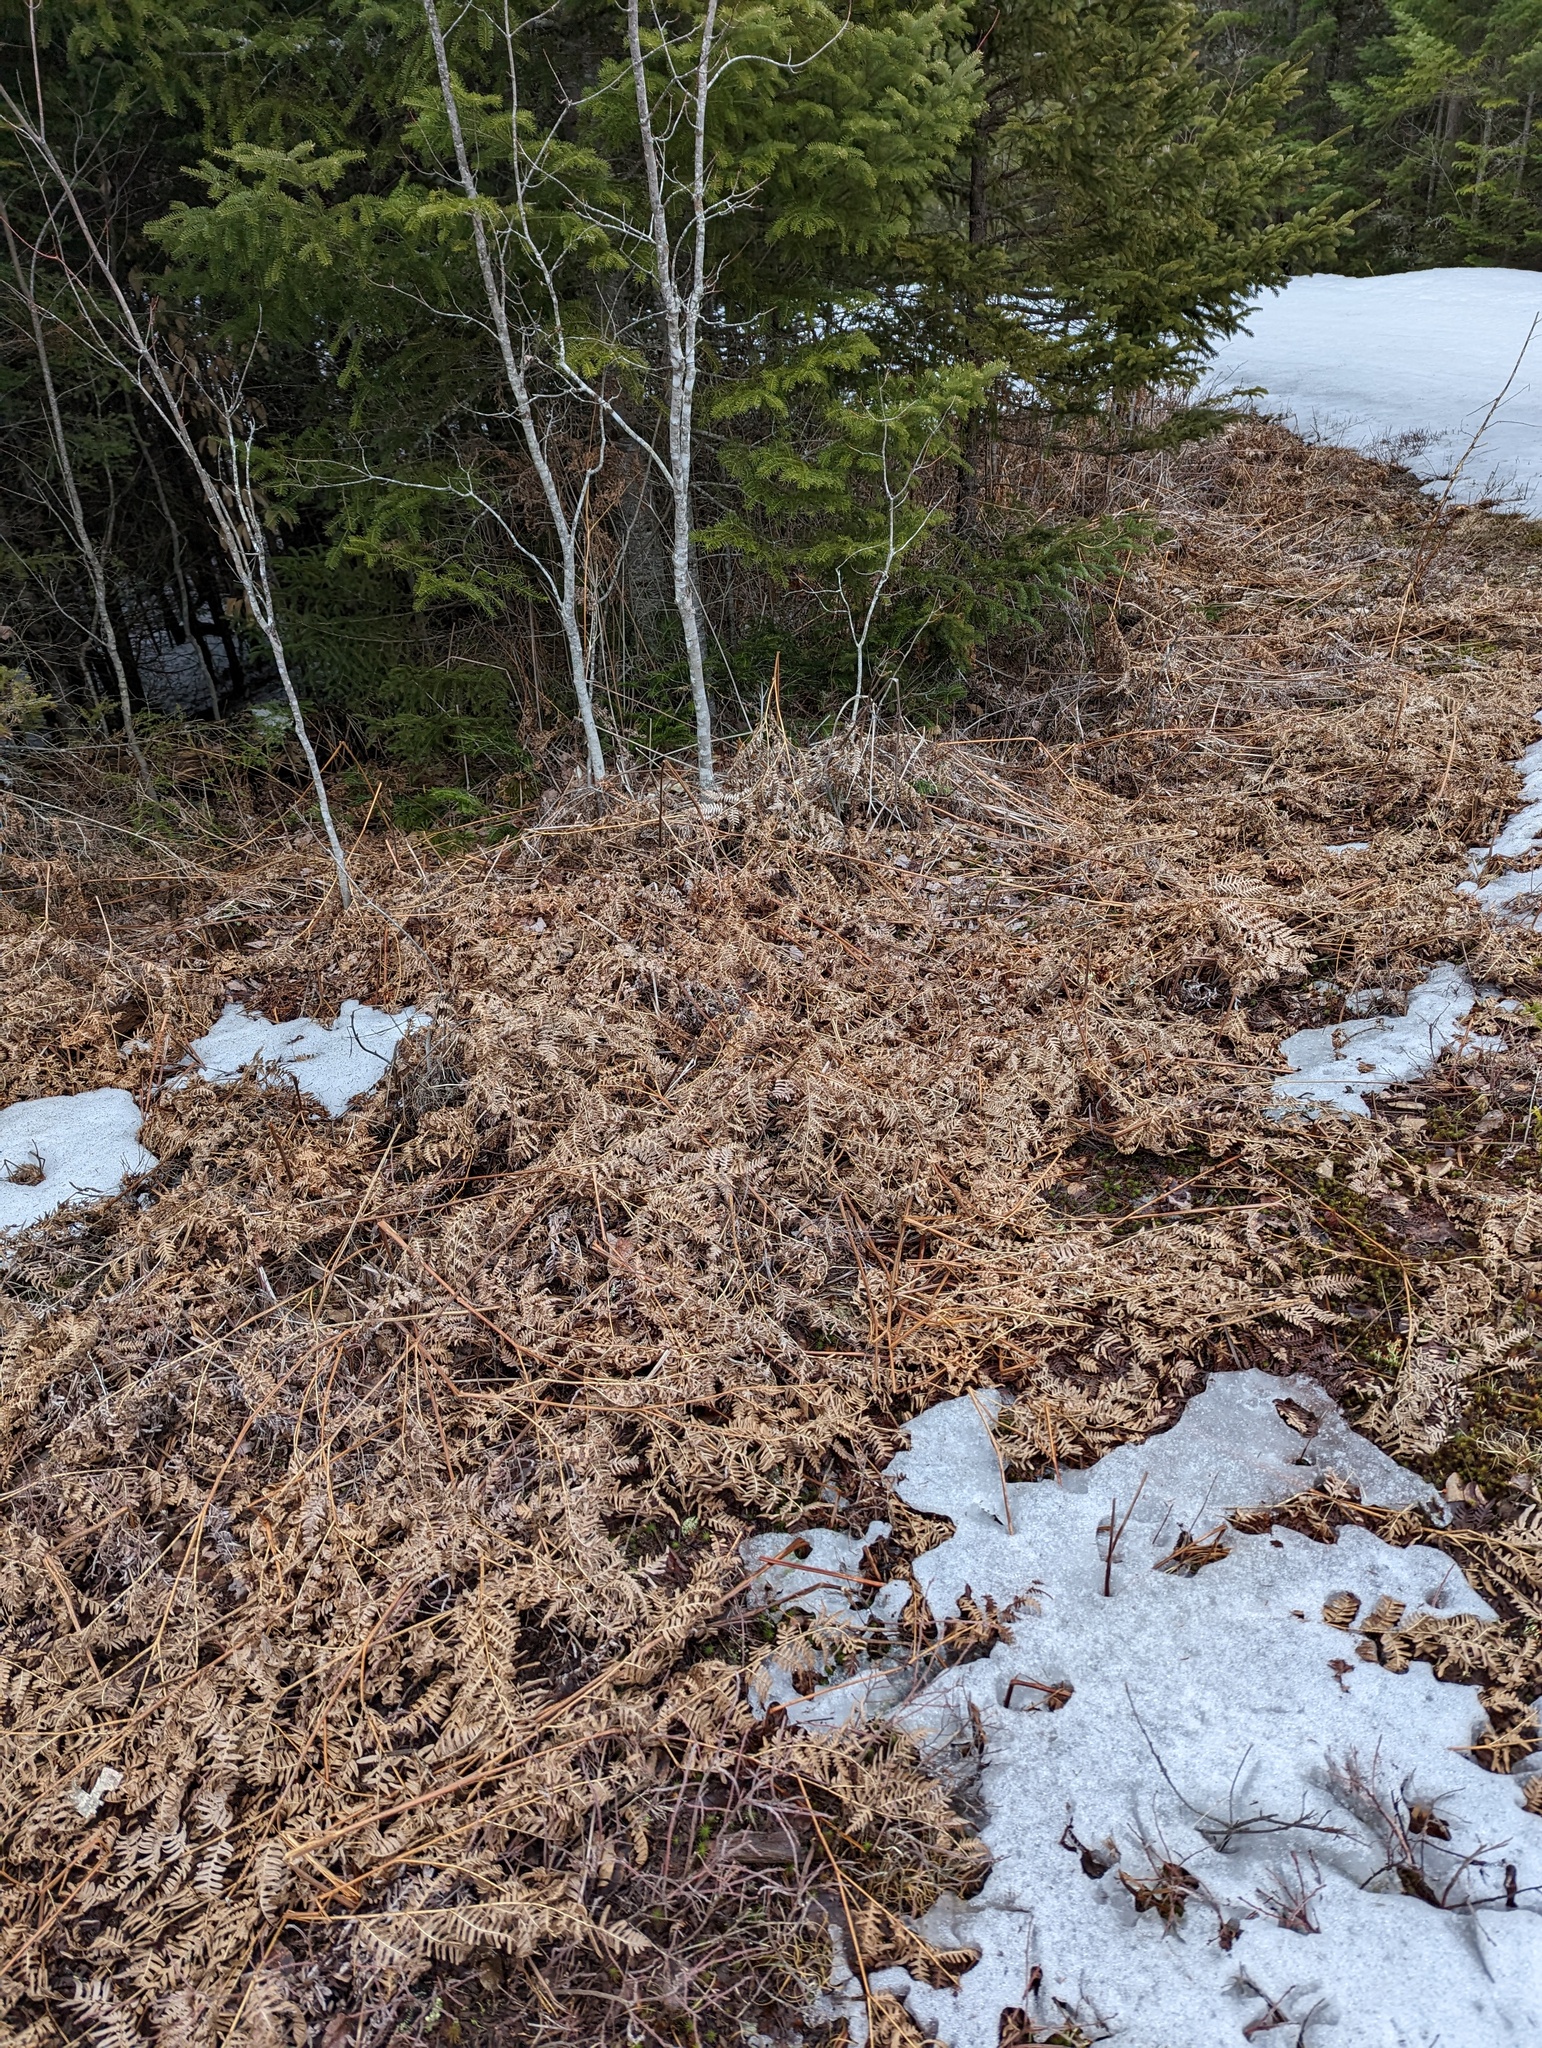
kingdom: Plantae
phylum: Tracheophyta
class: Polypodiopsida
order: Polypodiales
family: Dennstaedtiaceae
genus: Pteridium
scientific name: Pteridium aquilinum
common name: Bracken
